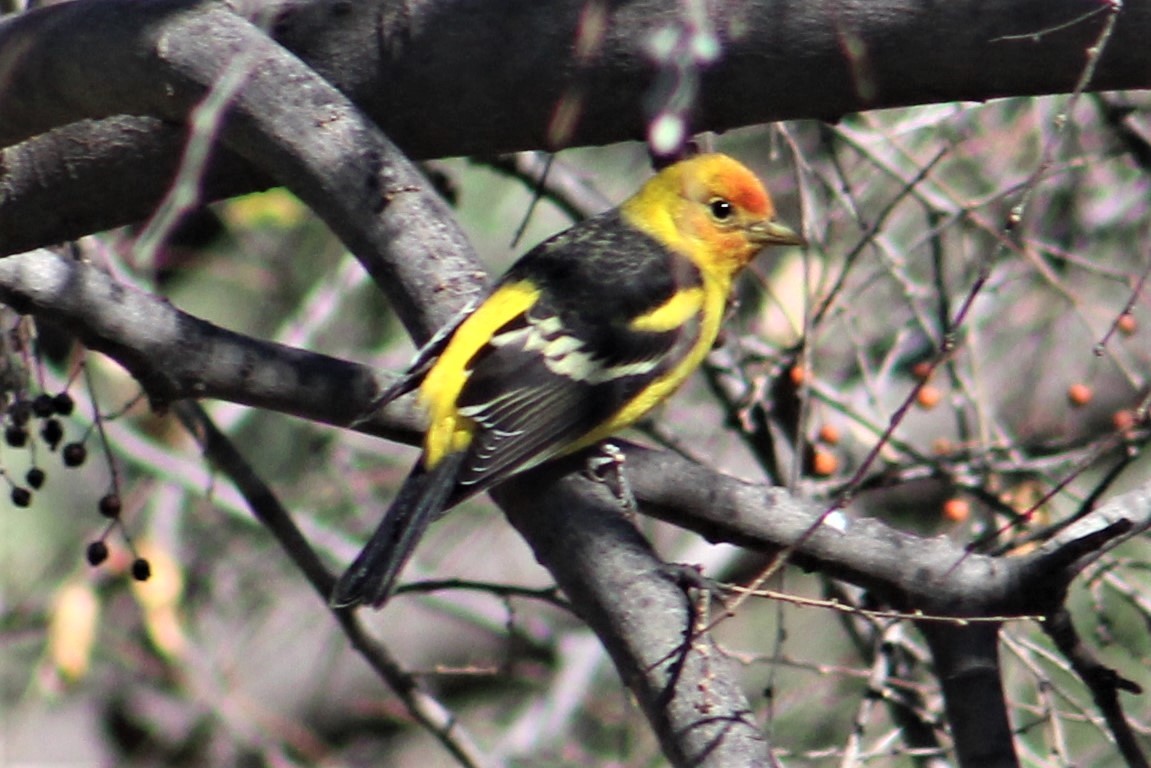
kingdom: Animalia
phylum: Chordata
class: Aves
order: Passeriformes
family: Cardinalidae
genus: Piranga
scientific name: Piranga ludoviciana
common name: Western tanager
